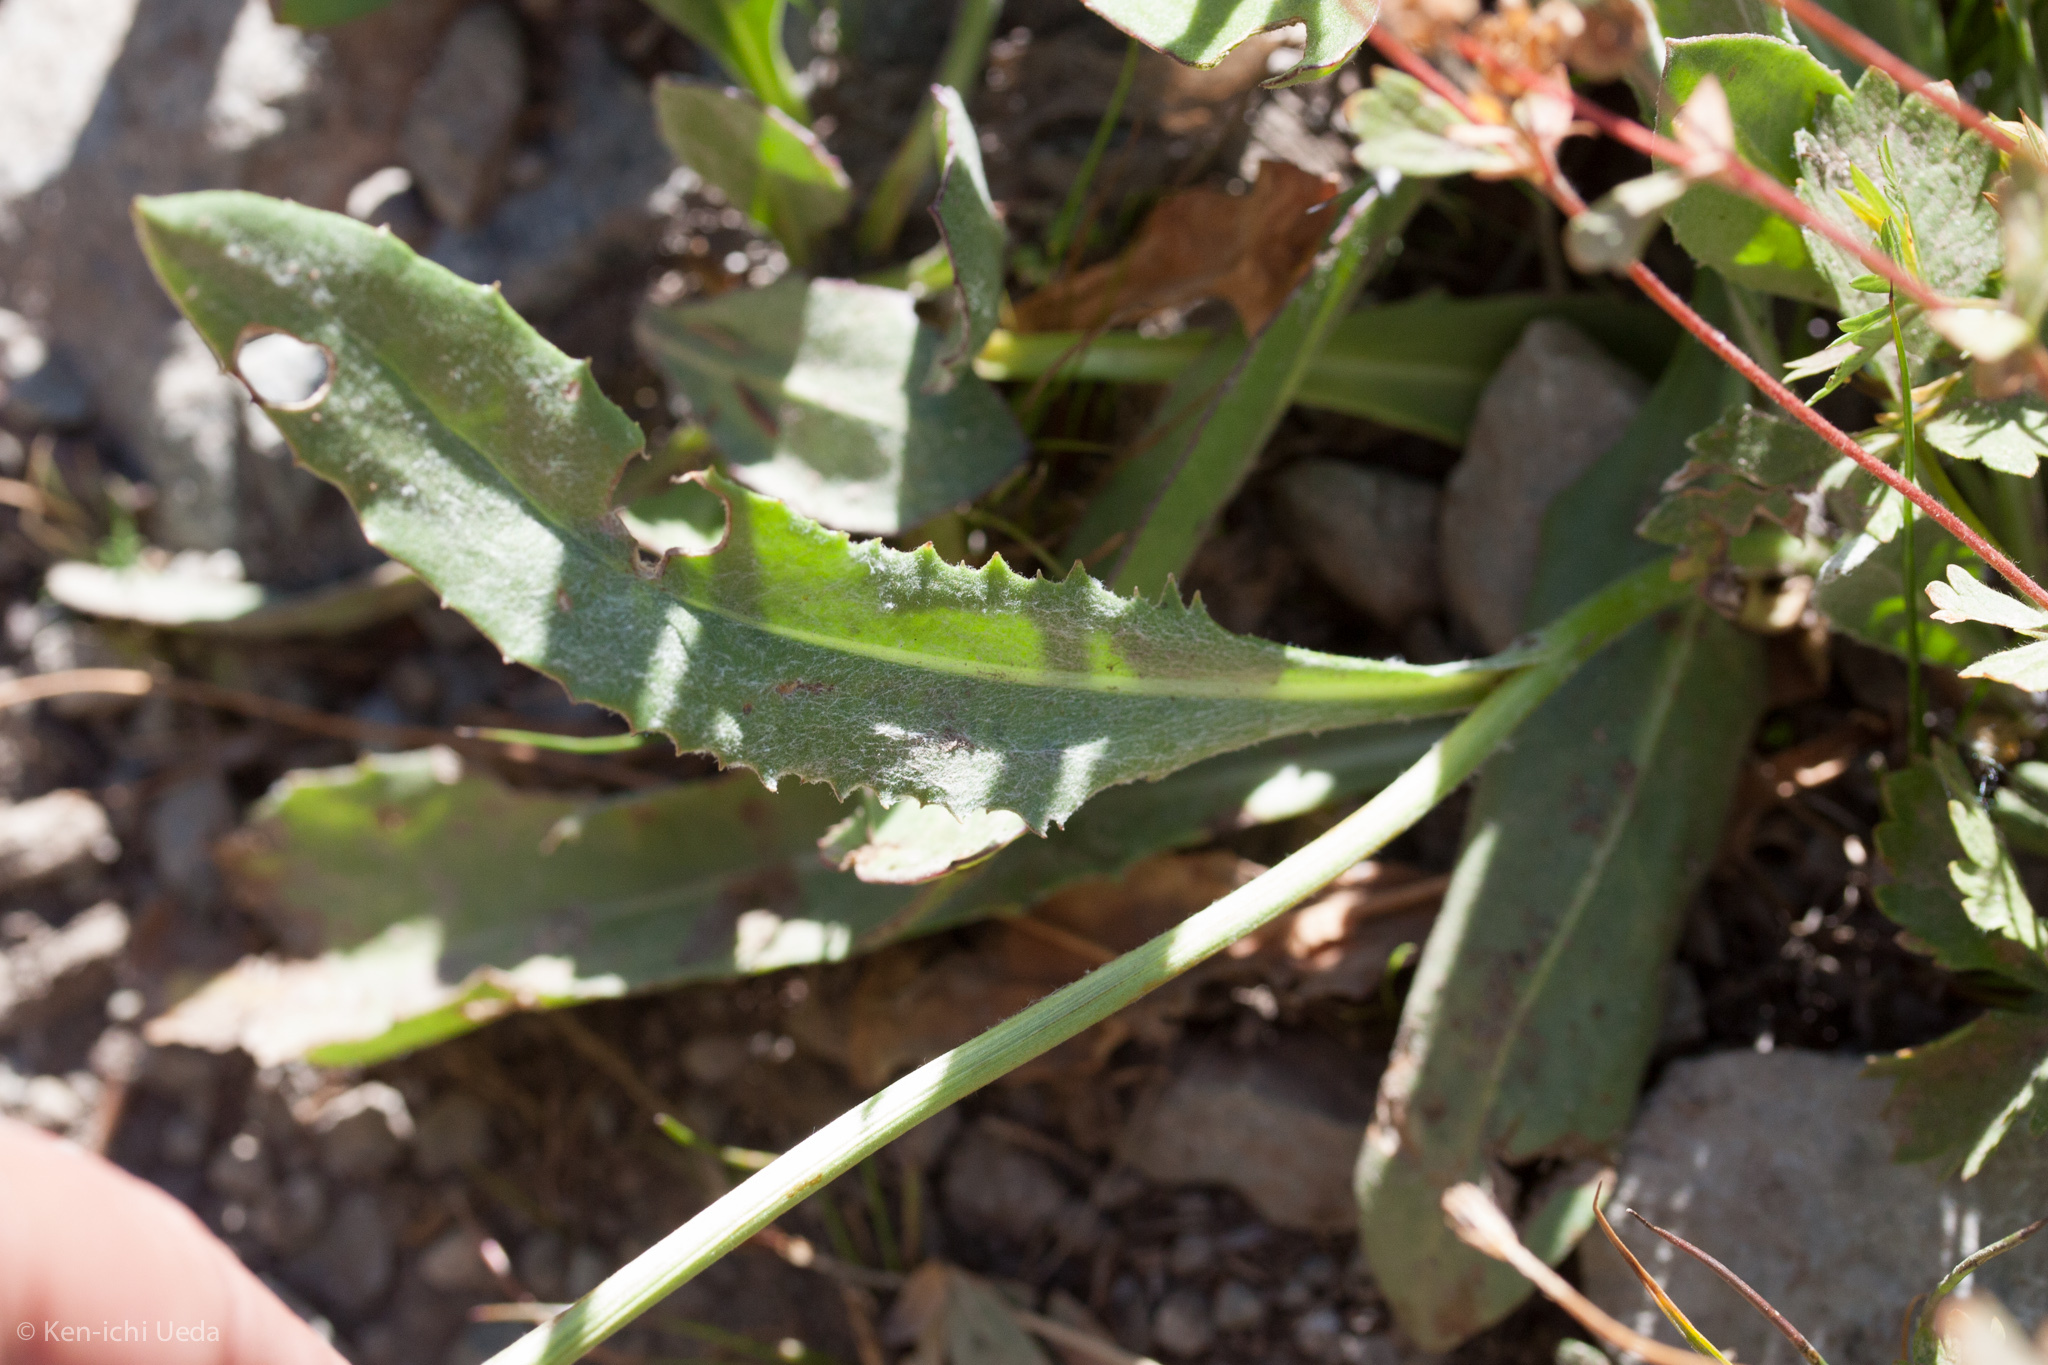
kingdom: Plantae
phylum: Tracheophyta
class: Magnoliopsida
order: Asterales
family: Asteraceae
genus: Senecio
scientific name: Senecio scorzonella
